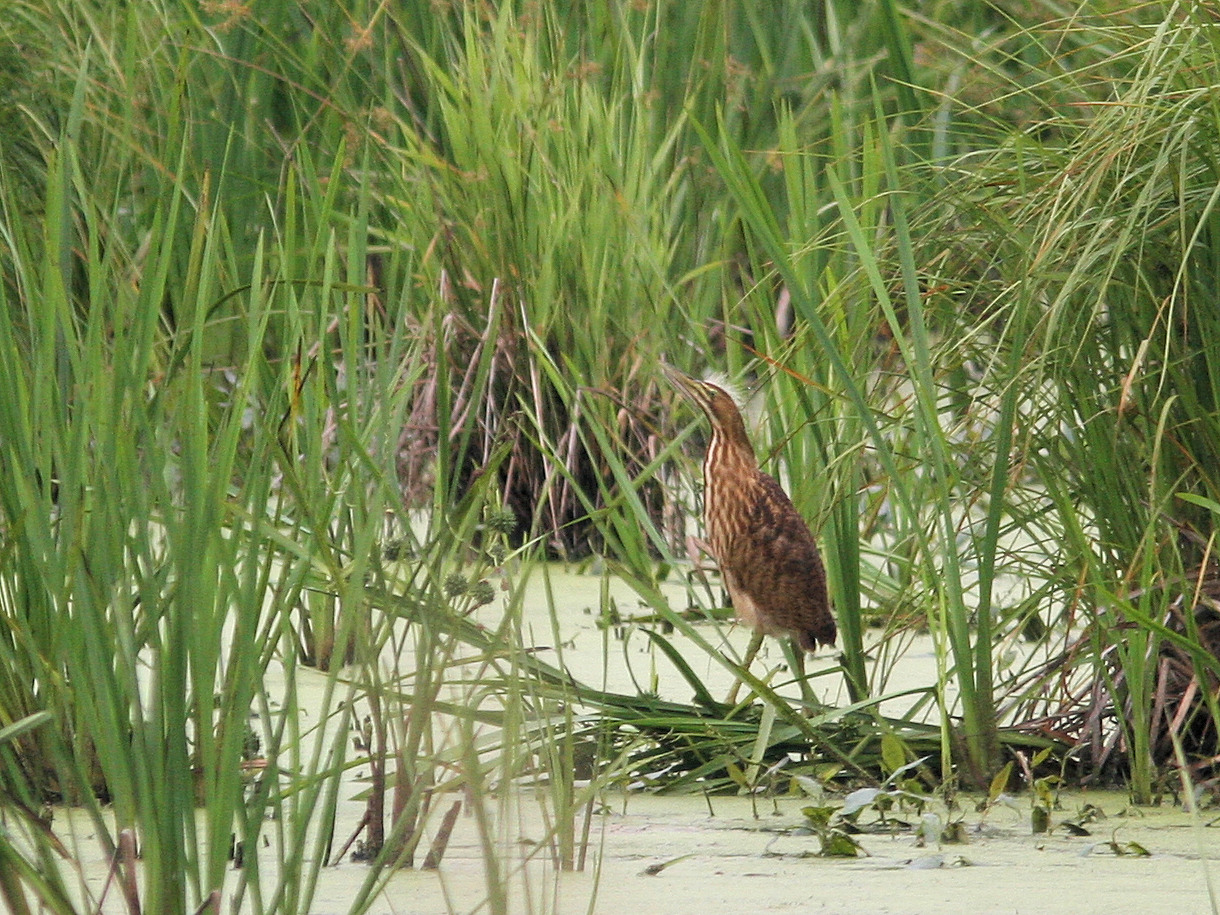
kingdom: Animalia
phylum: Chordata
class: Aves
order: Pelecaniformes
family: Ardeidae
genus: Botaurus
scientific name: Botaurus lentiginosus
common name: American bittern
